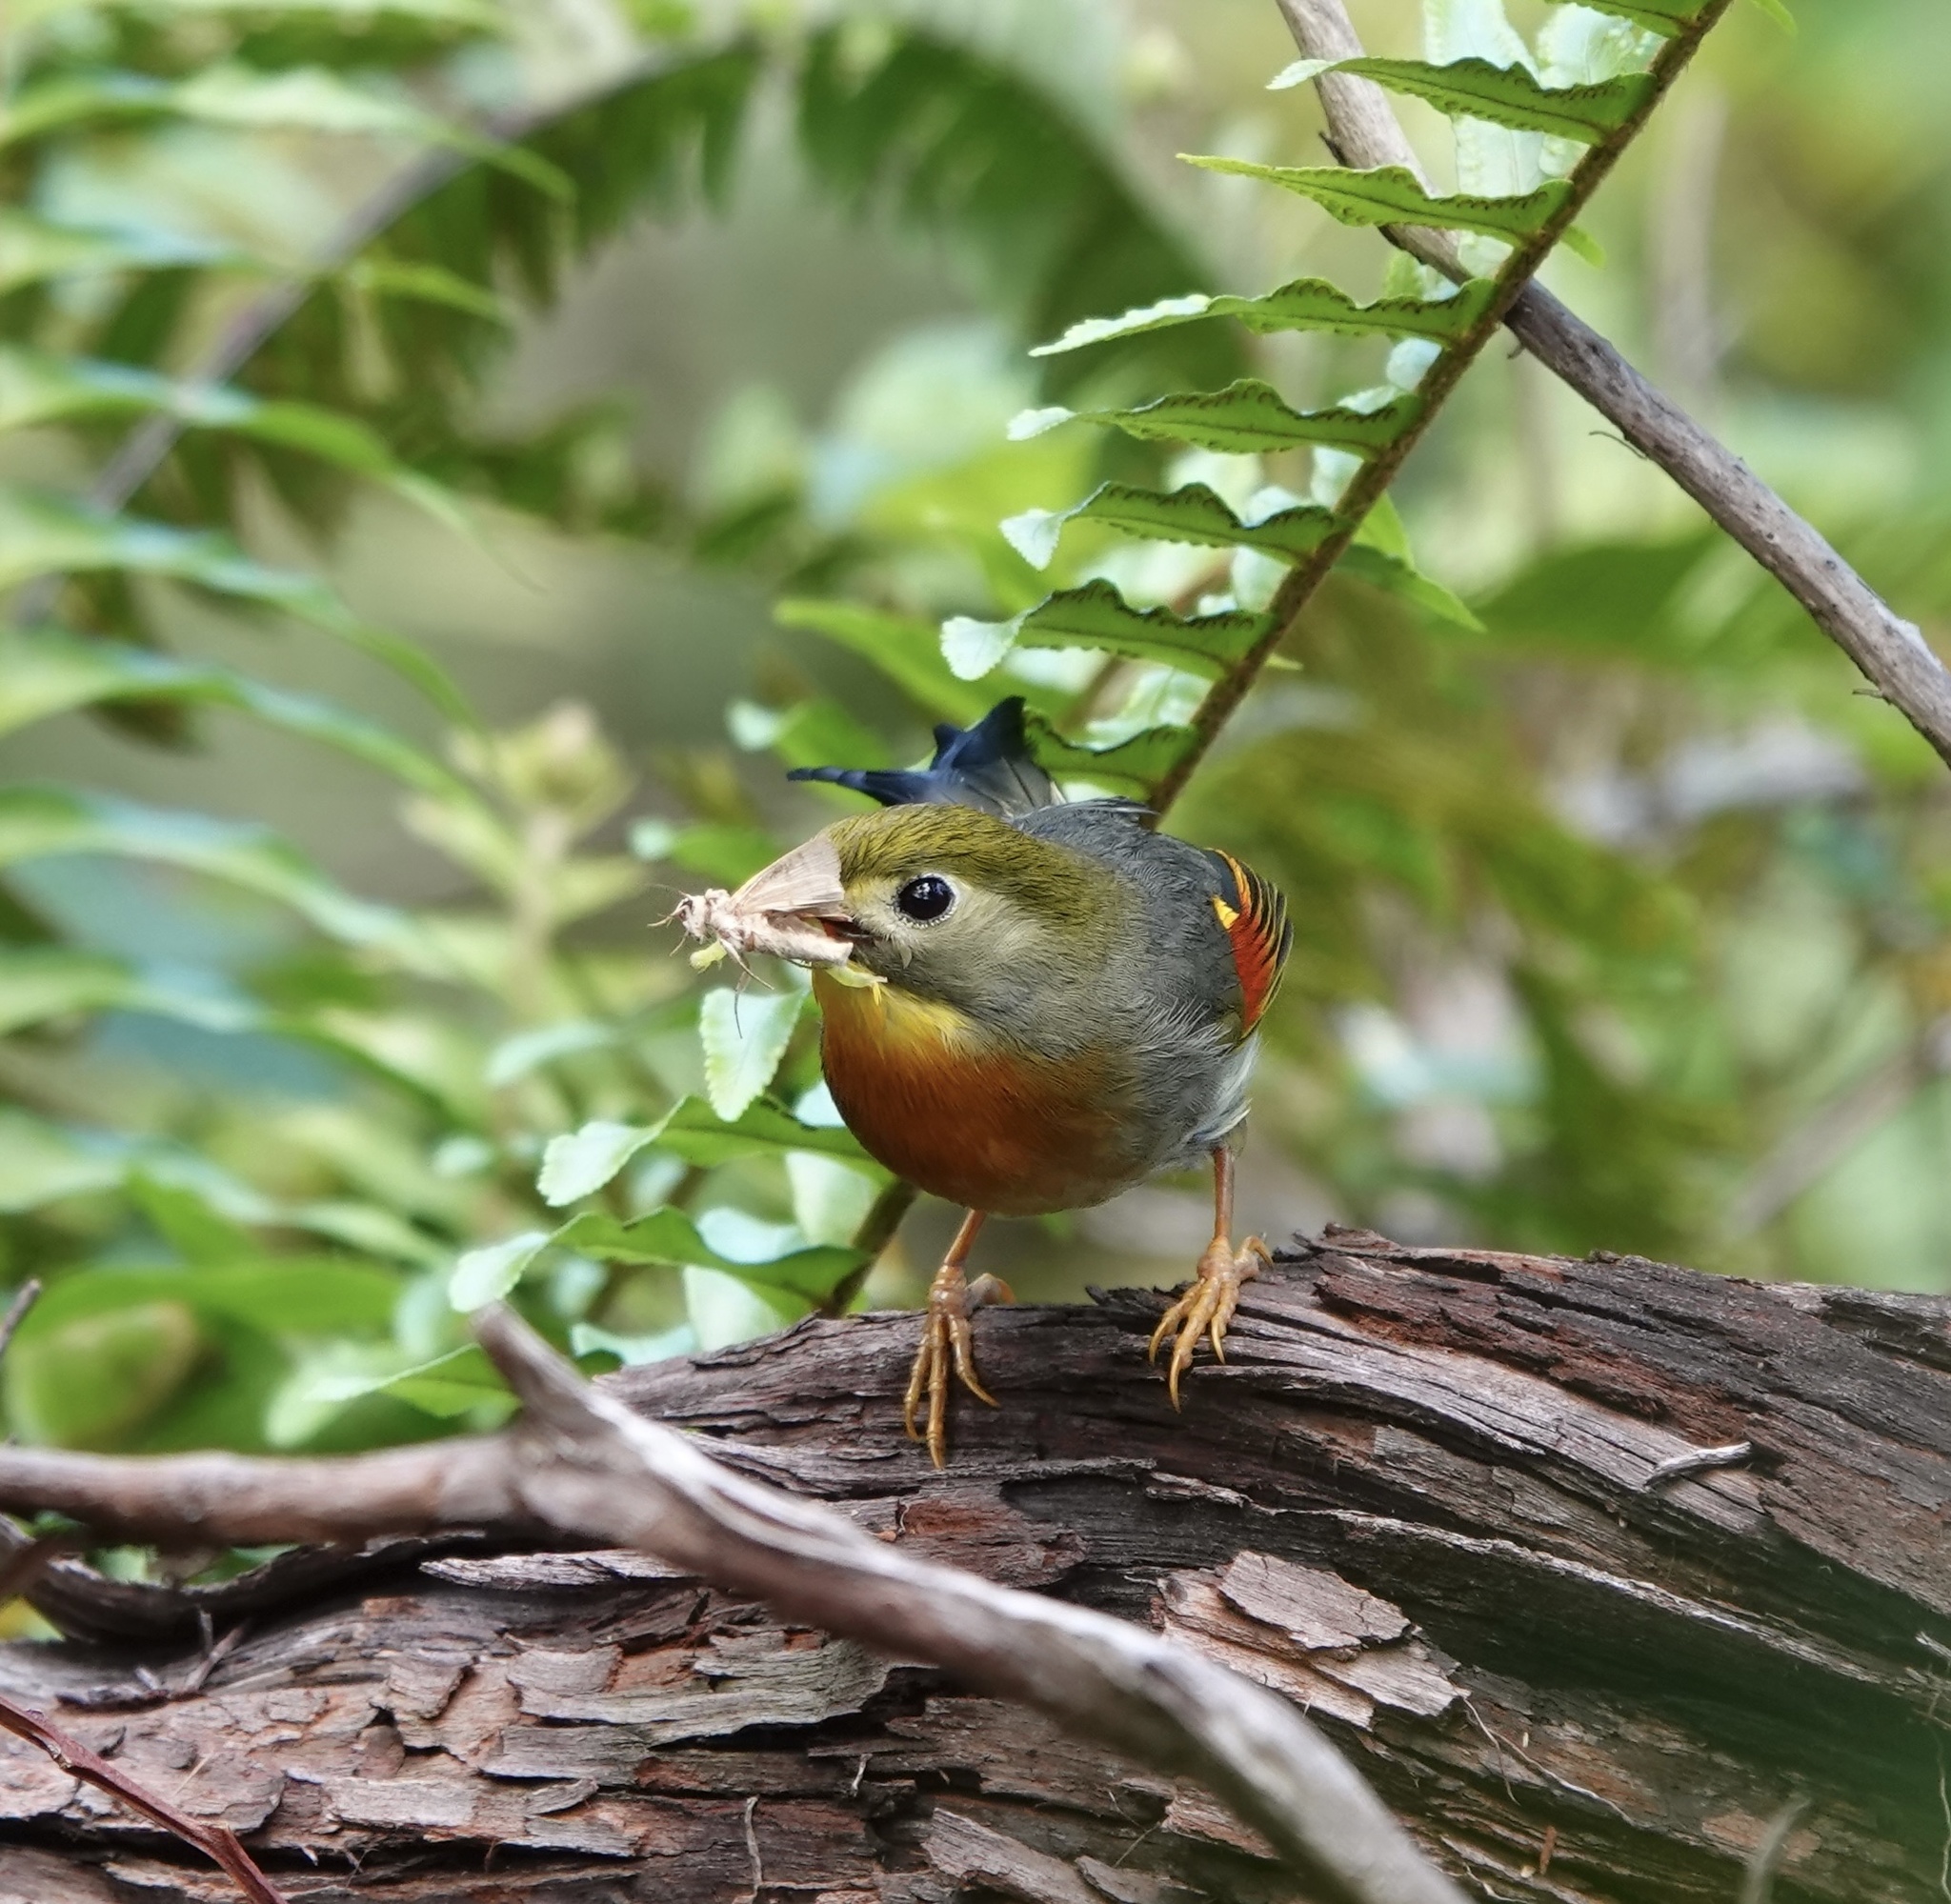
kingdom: Animalia
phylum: Chordata
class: Aves
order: Passeriformes
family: Leiothrichidae
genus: Leiothrix
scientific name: Leiothrix lutea
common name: Red-billed leiothrix
